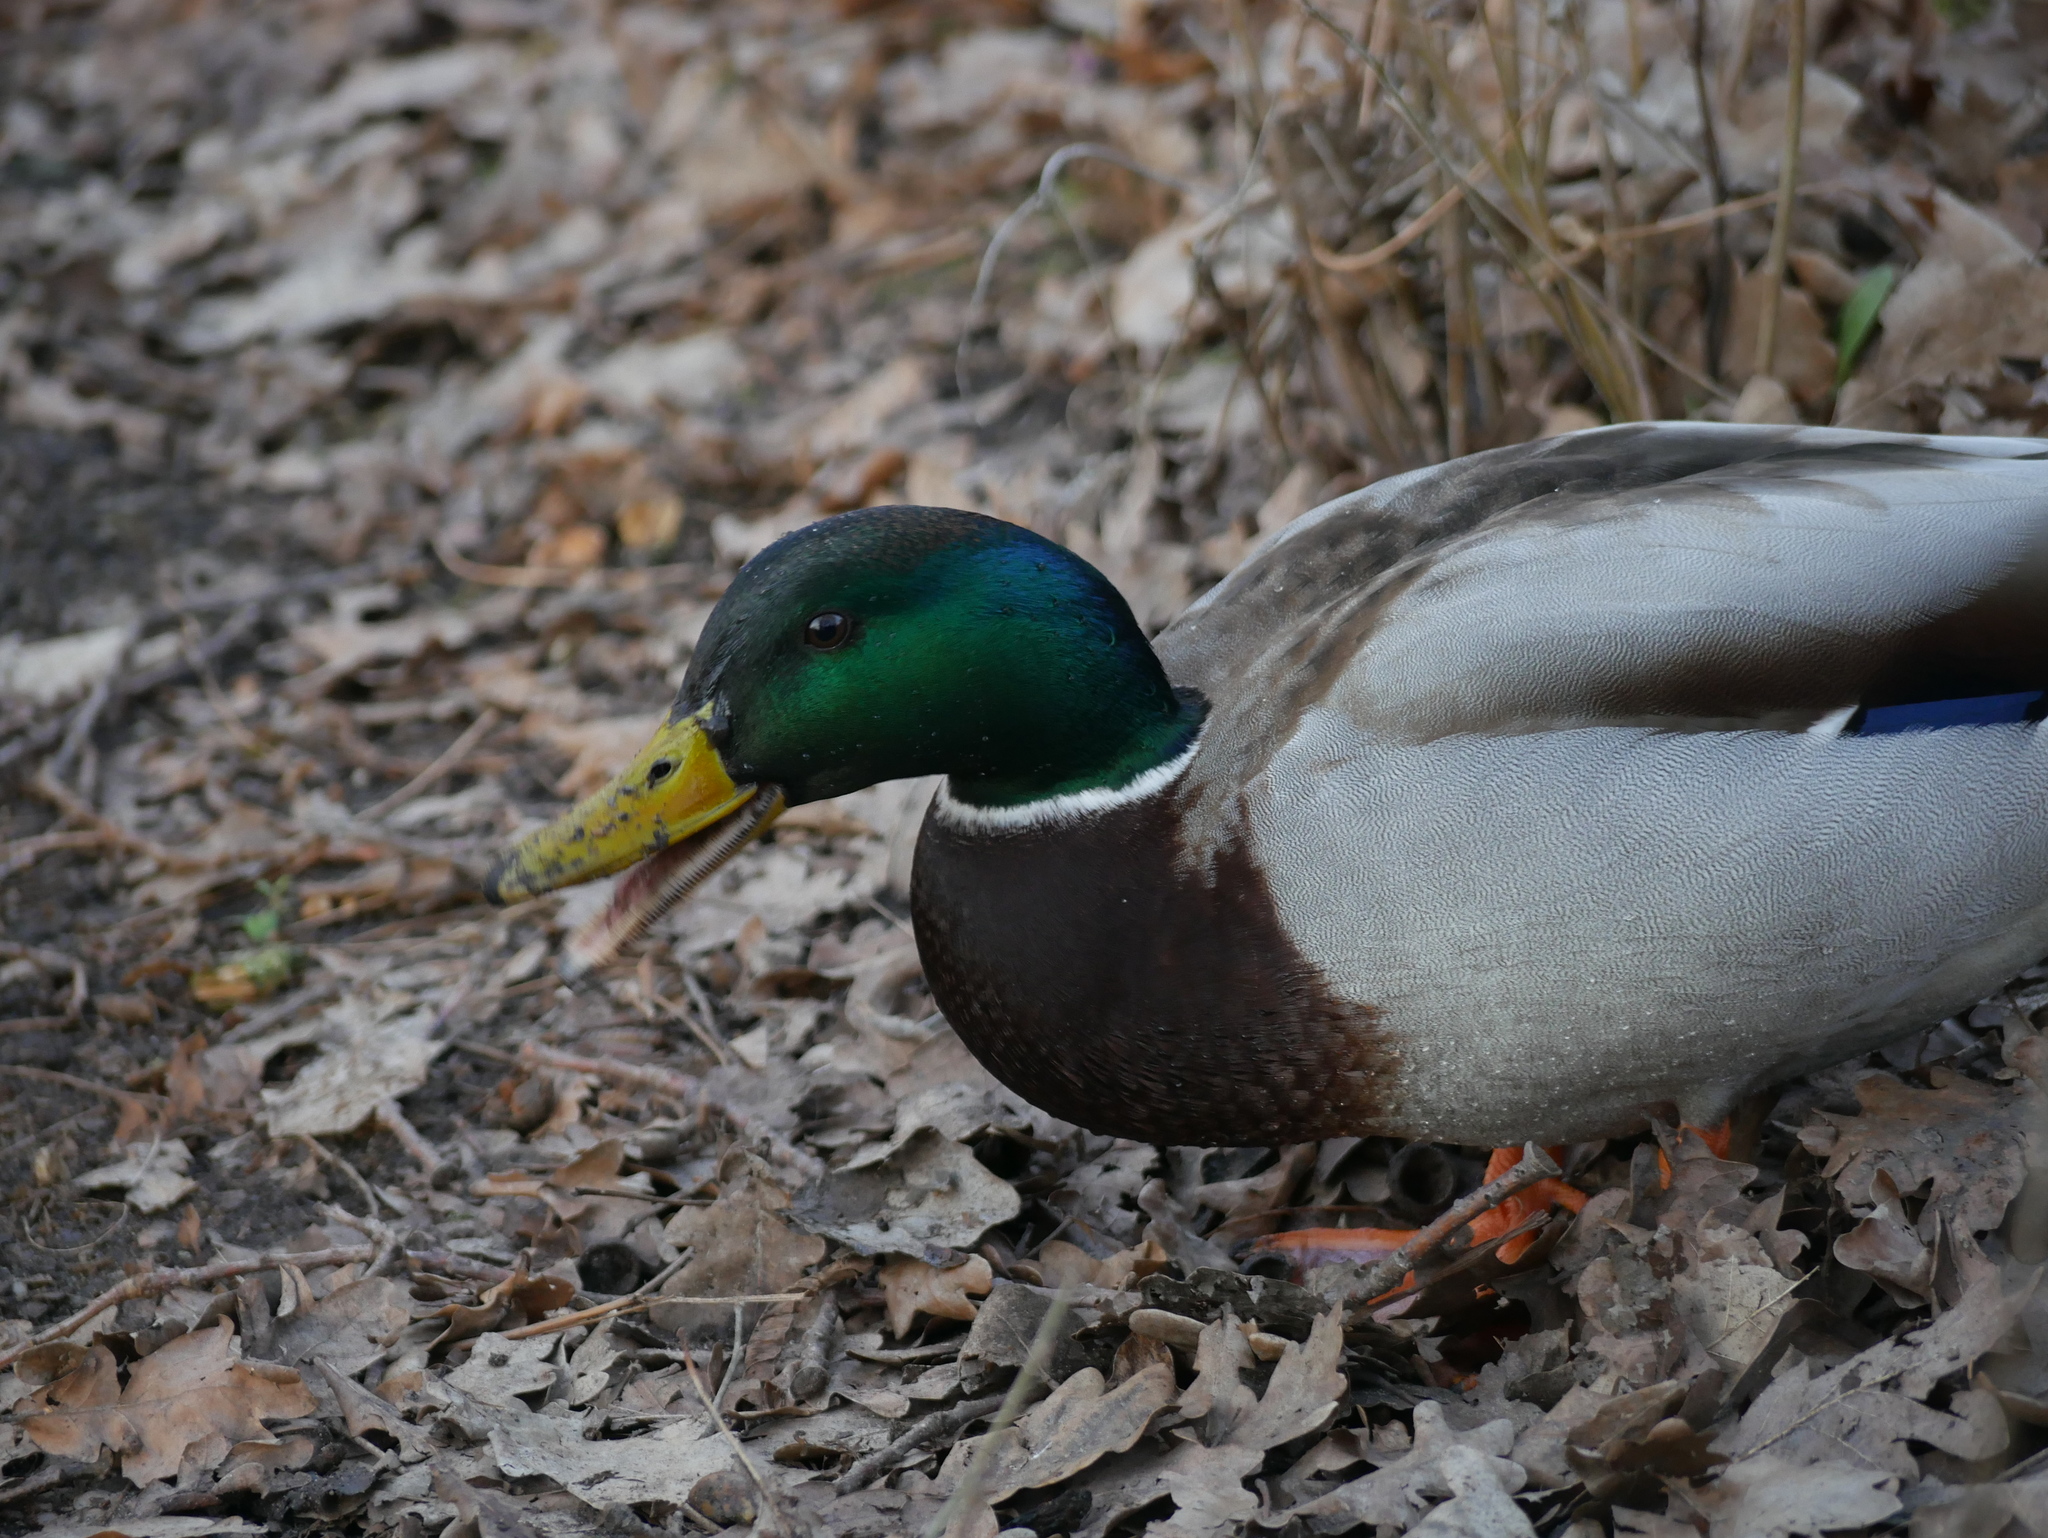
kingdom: Animalia
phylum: Chordata
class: Aves
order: Anseriformes
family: Anatidae
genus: Anas
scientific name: Anas platyrhynchos
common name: Mallard
